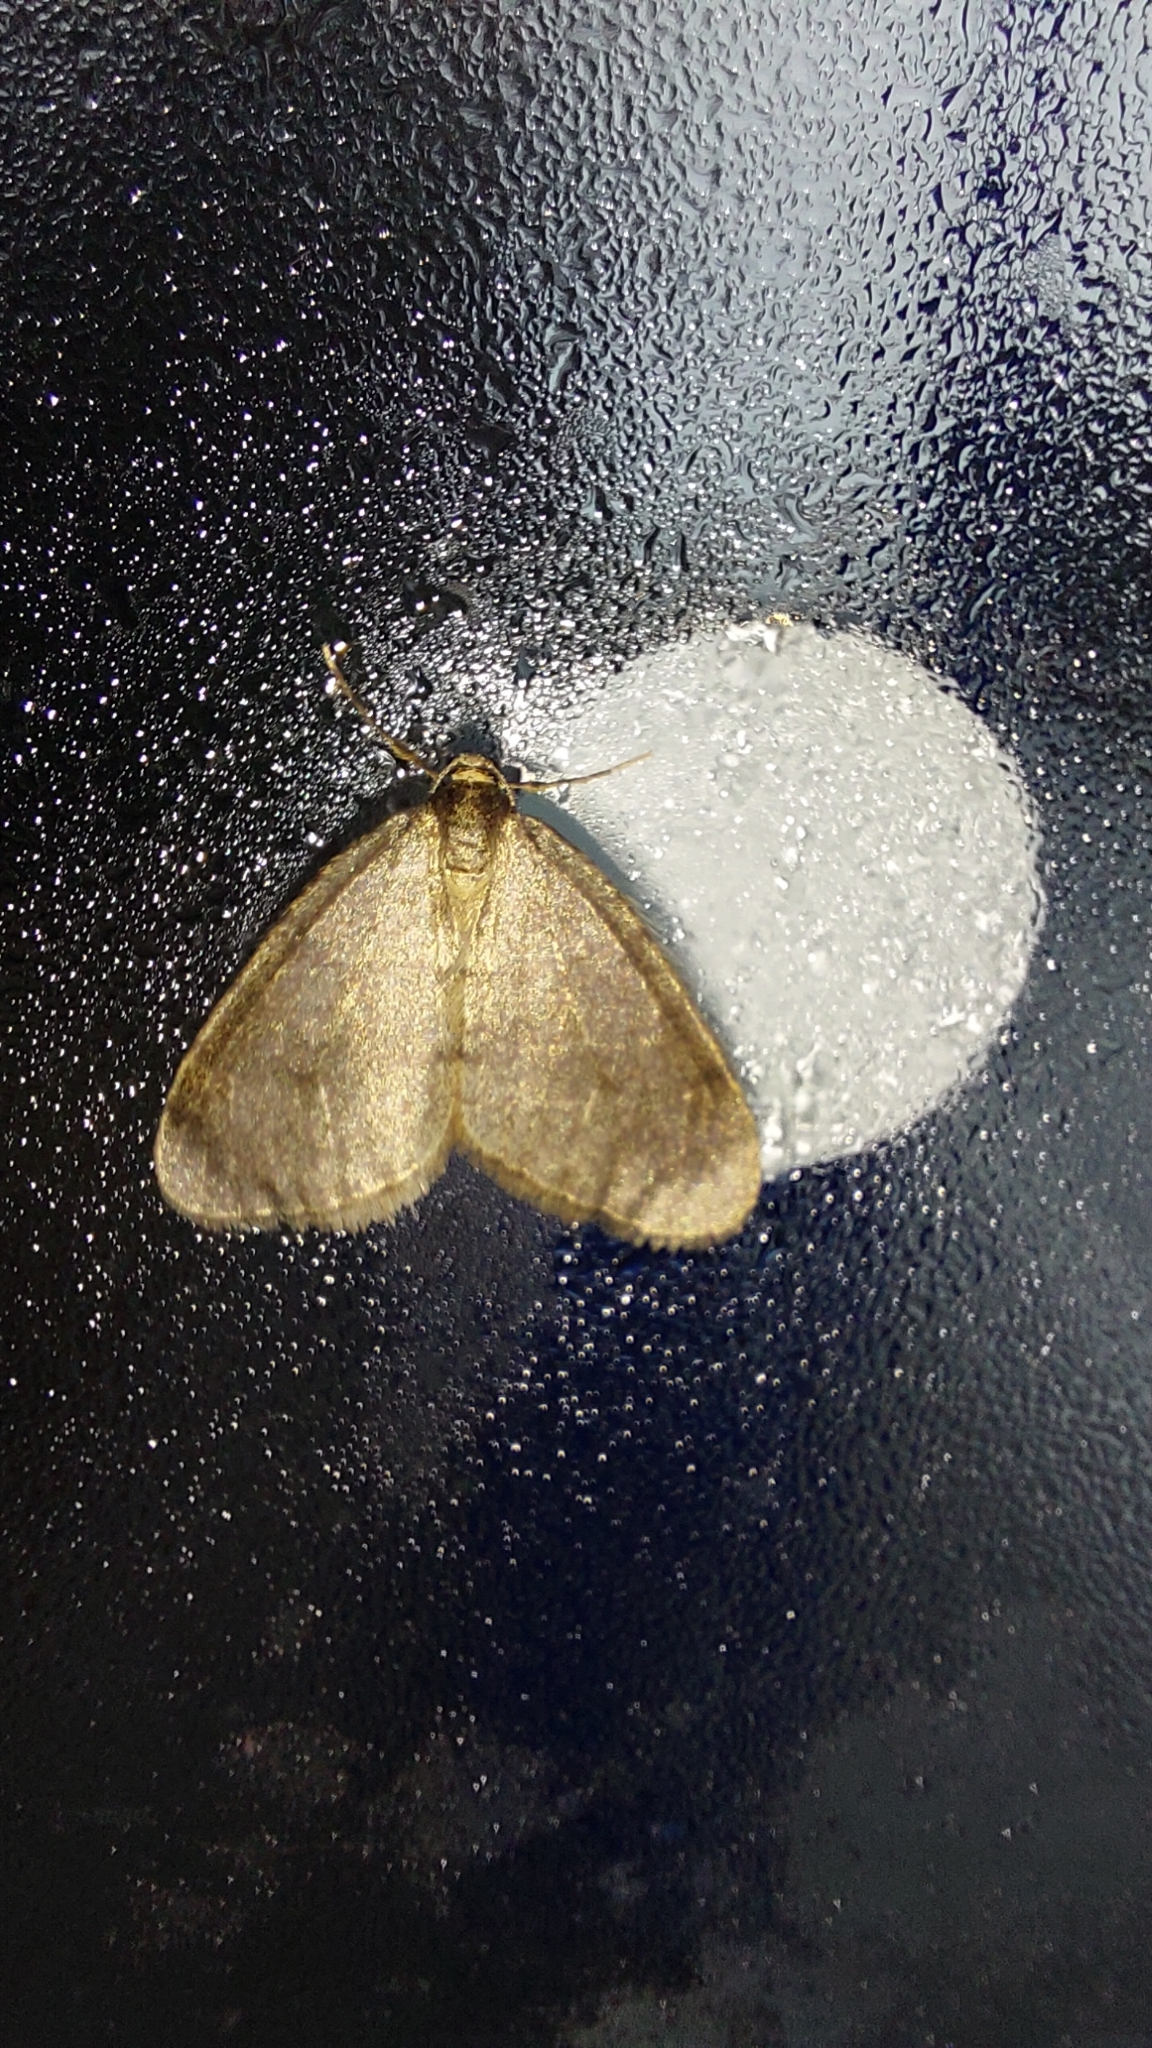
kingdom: Animalia
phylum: Arthropoda
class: Insecta
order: Lepidoptera
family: Geometridae
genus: Operophtera
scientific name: Operophtera brumata
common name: Winter moth
